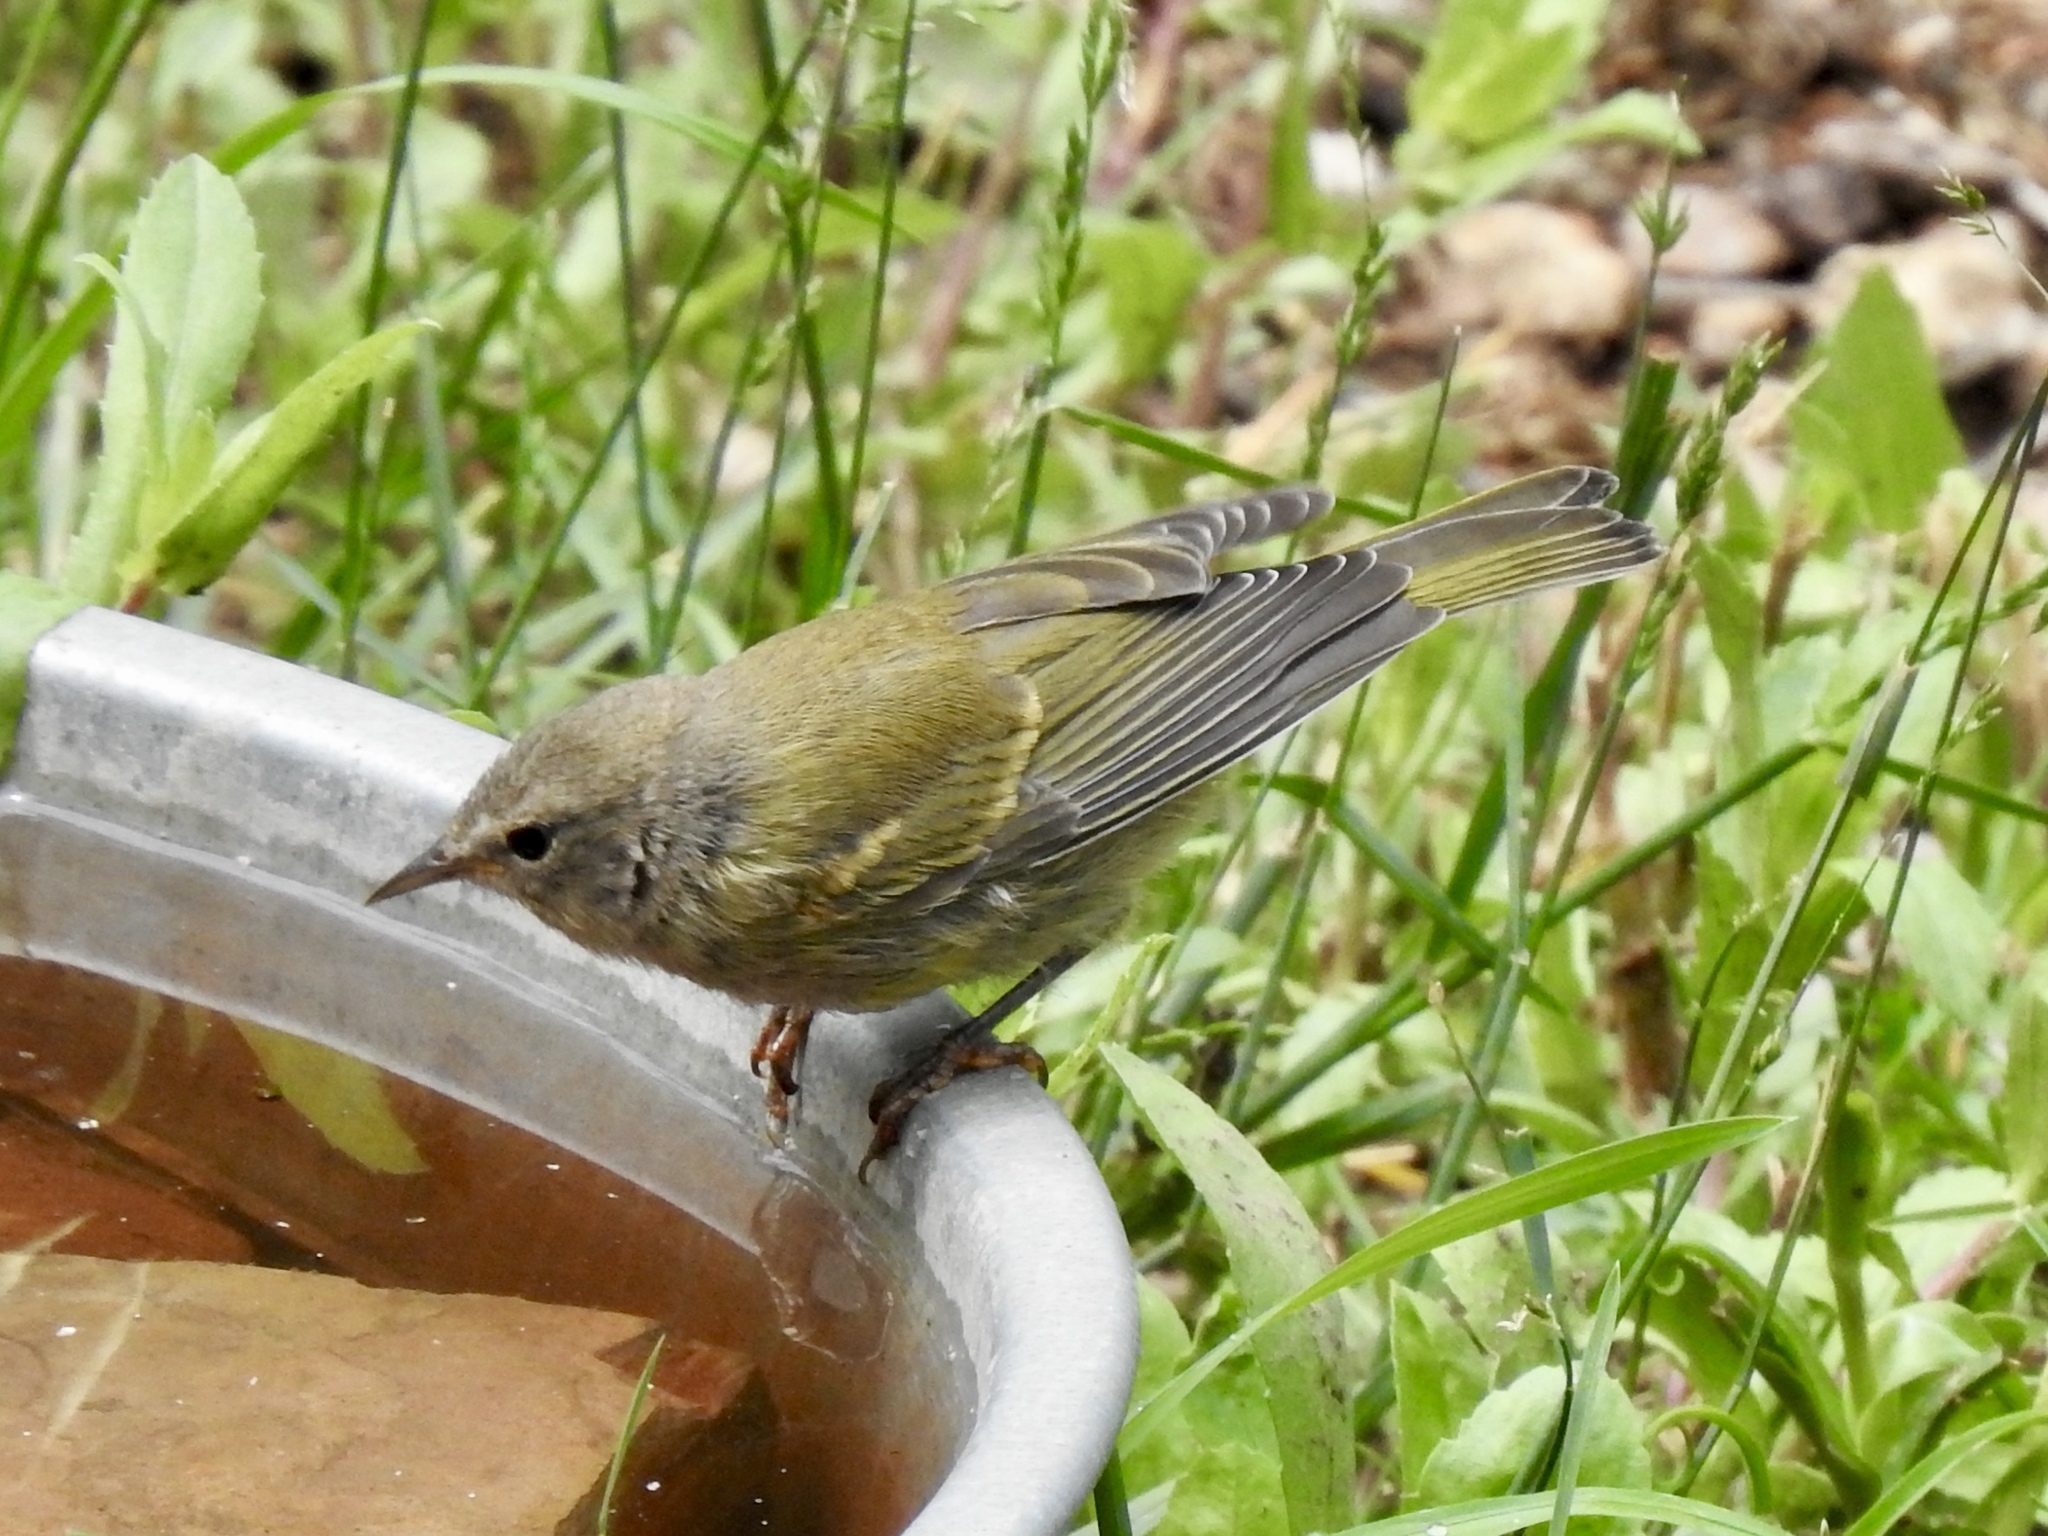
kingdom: Animalia
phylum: Chordata
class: Aves
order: Passeriformes
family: Parulidae
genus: Leiothlypis
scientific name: Leiothlypis celata
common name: Orange-crowned warbler
